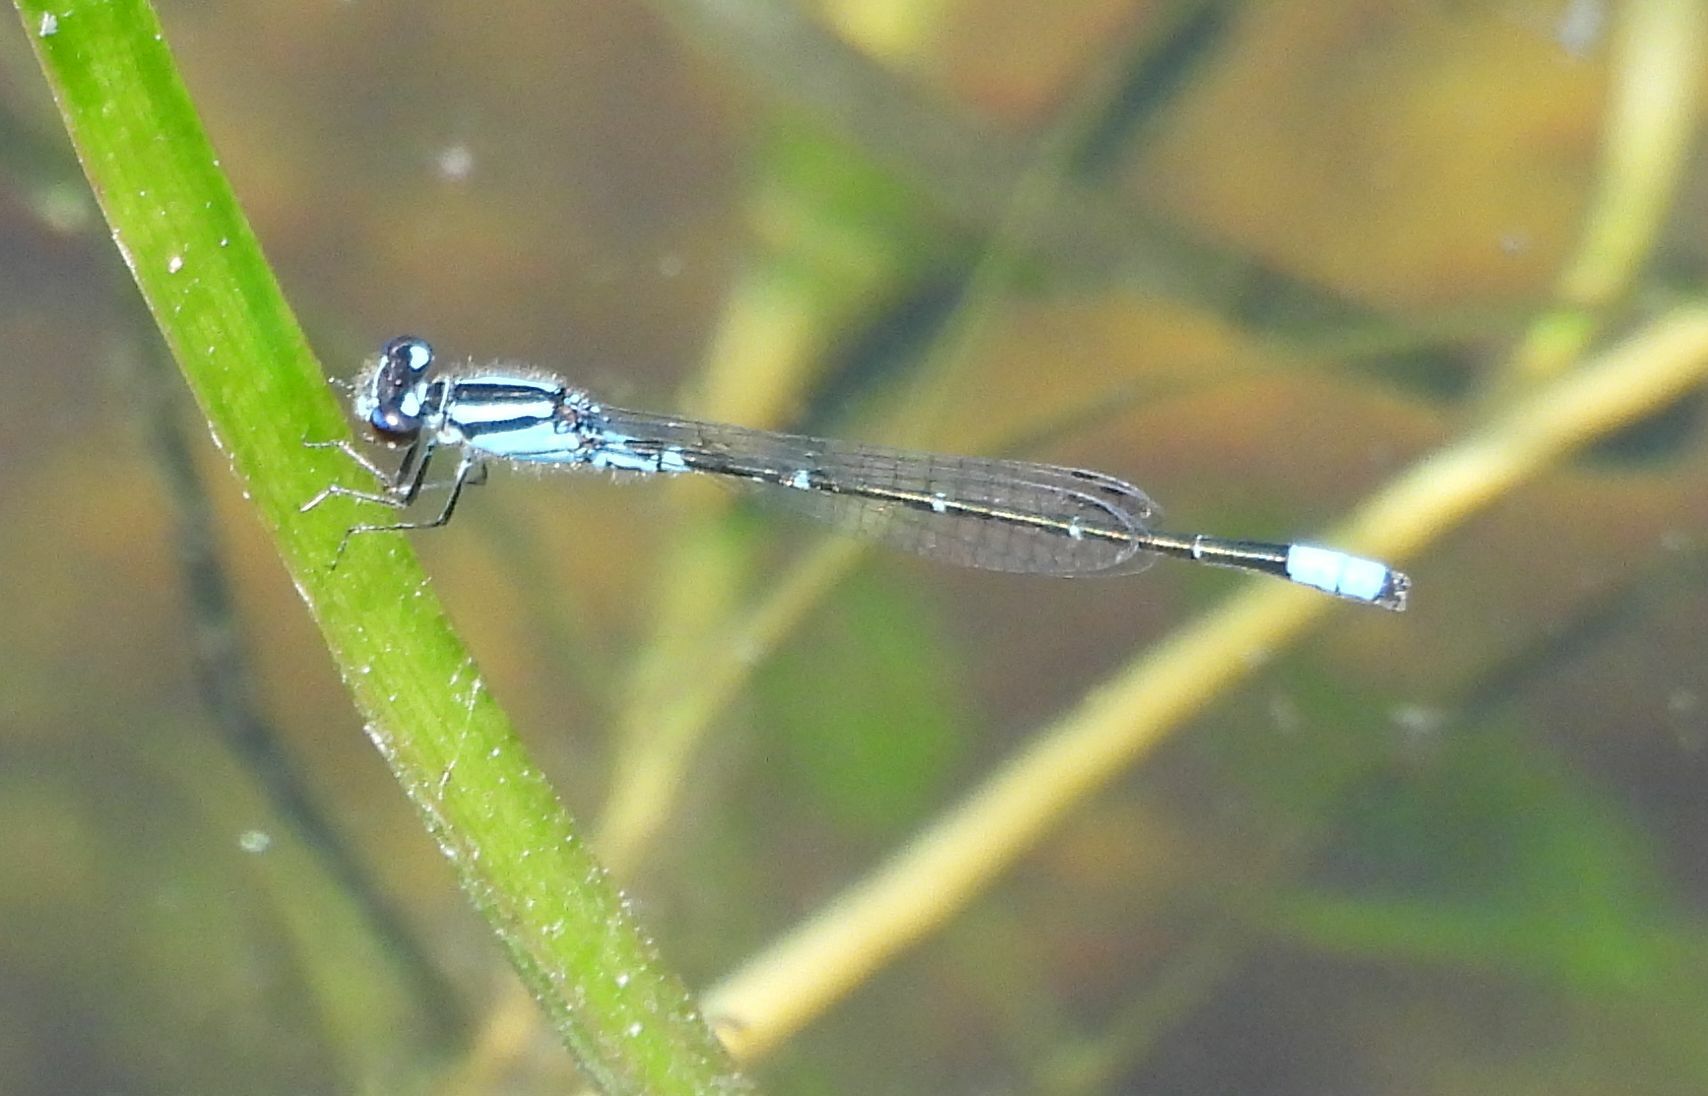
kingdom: Animalia
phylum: Arthropoda
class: Insecta
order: Odonata
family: Coenagrionidae
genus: Enallagma
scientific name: Enallagma geminatum
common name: Skimming bluet
